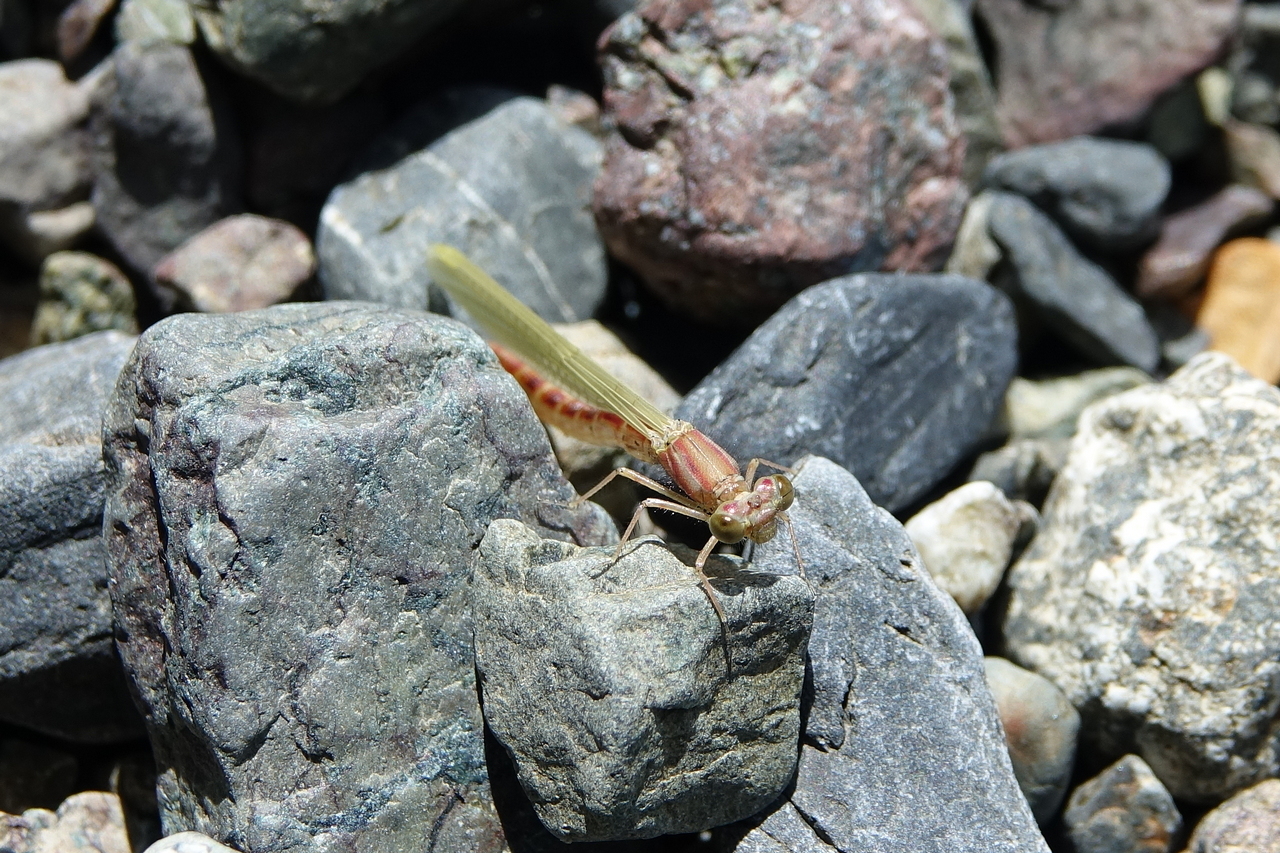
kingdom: Animalia
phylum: Arthropoda
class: Insecta
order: Odonata
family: Coenagrionidae
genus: Xanthocnemis
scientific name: Xanthocnemis zealandica
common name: Common redcoat damselfly
